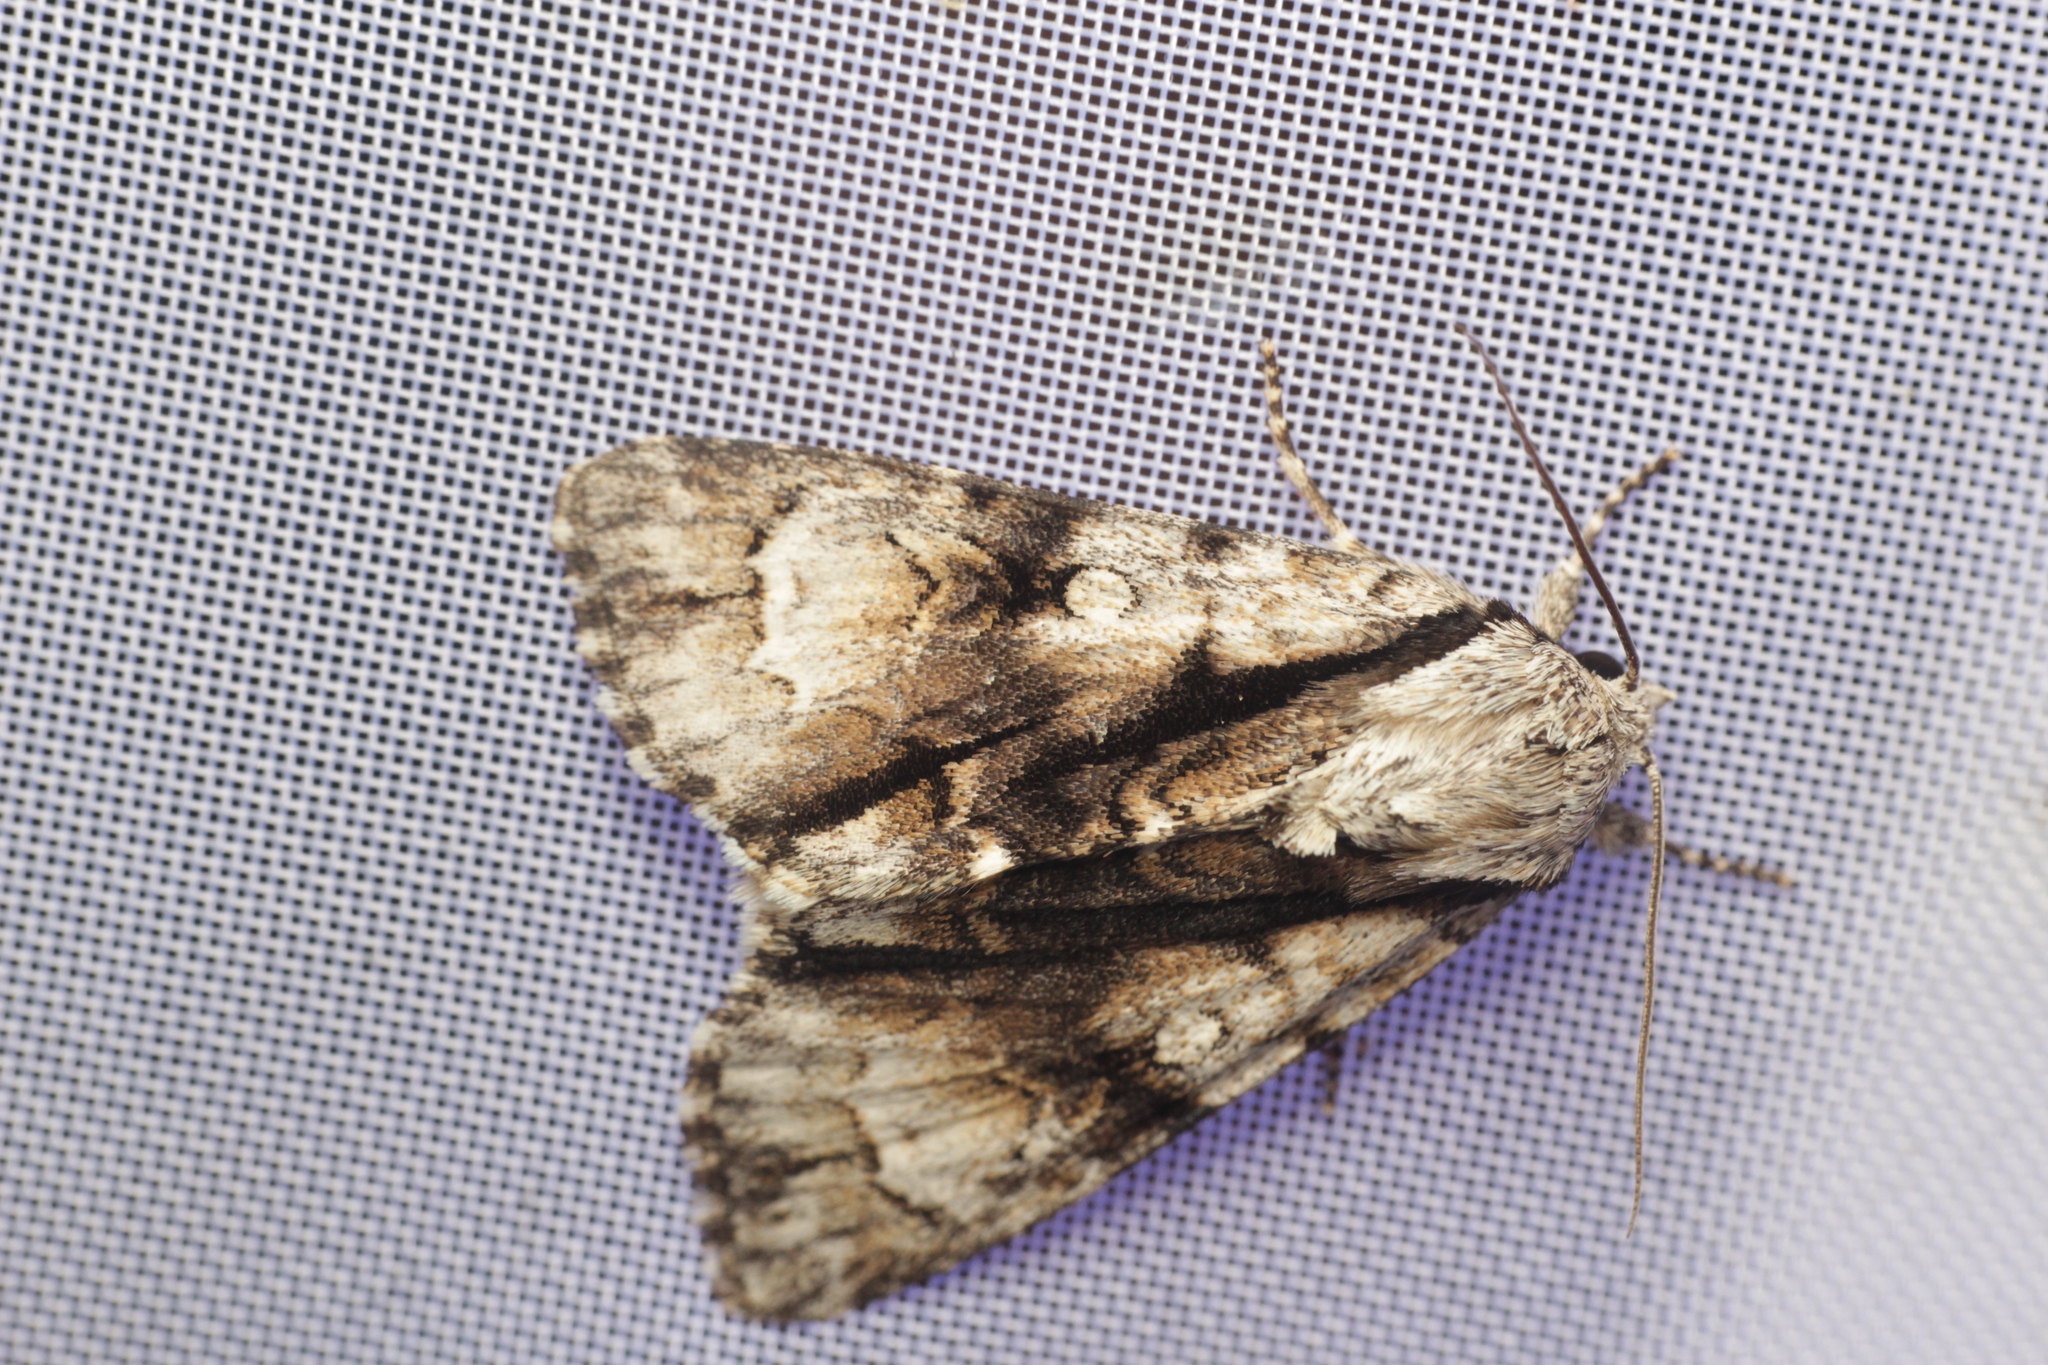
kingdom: Animalia
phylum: Arthropoda
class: Insecta
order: Lepidoptera
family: Noctuidae
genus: Acronicta
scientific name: Acronicta alni
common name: Alder moth
